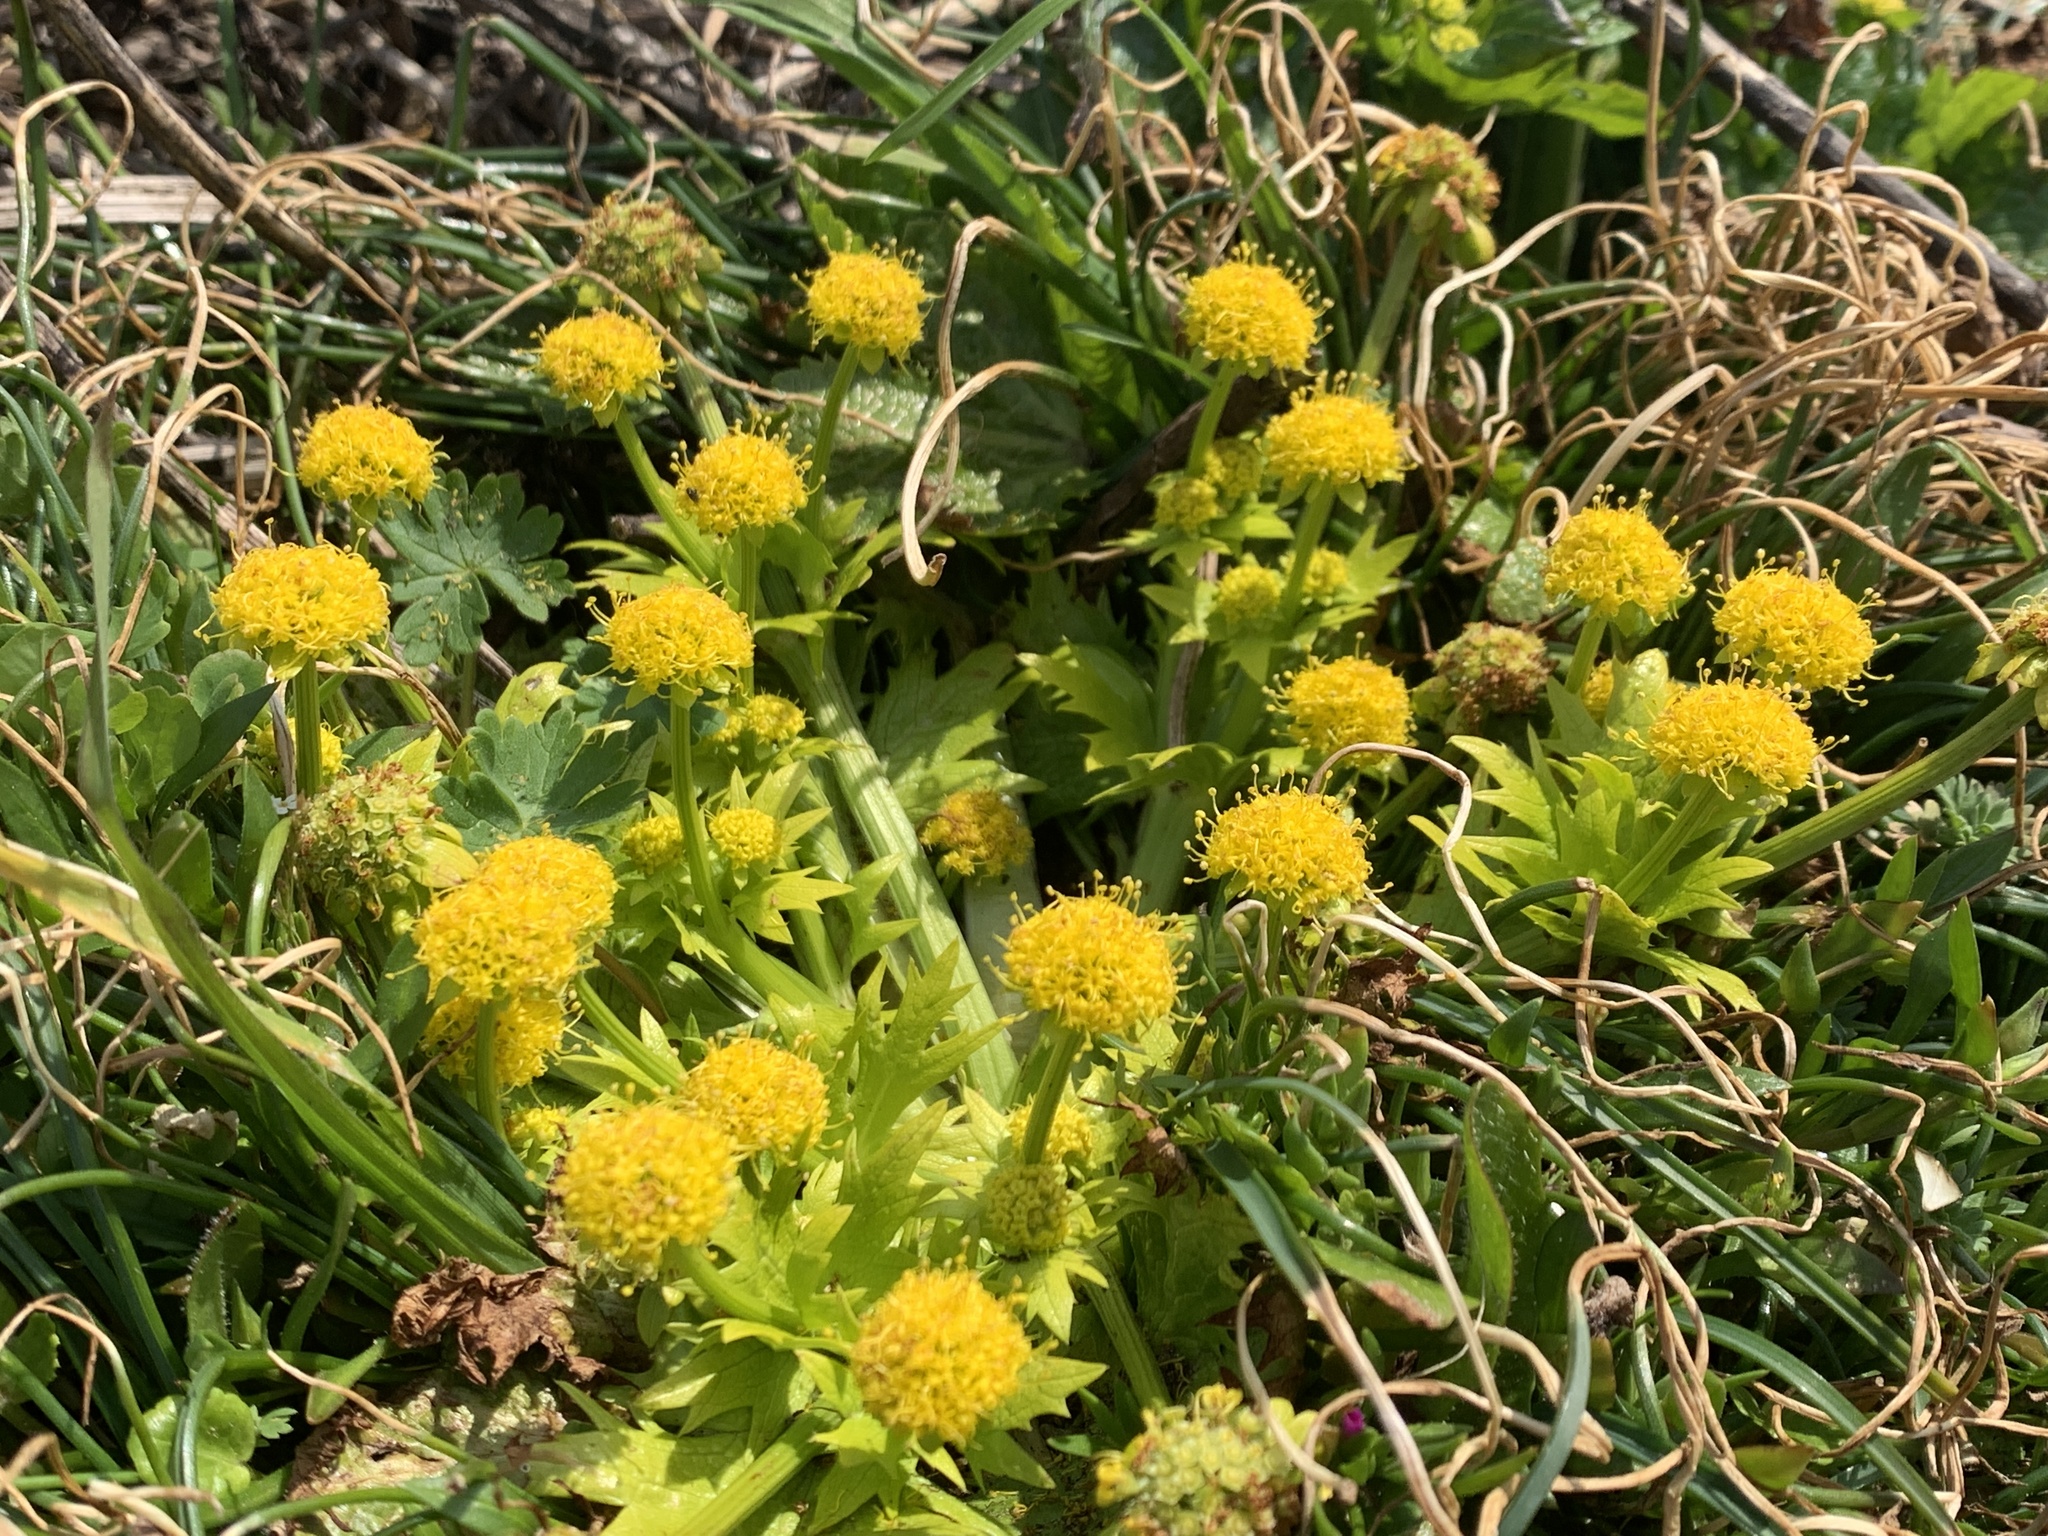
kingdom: Plantae
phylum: Tracheophyta
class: Magnoliopsida
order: Apiales
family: Apiaceae
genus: Sanicula
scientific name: Sanicula arctopoides
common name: Footsteps-of-spring
